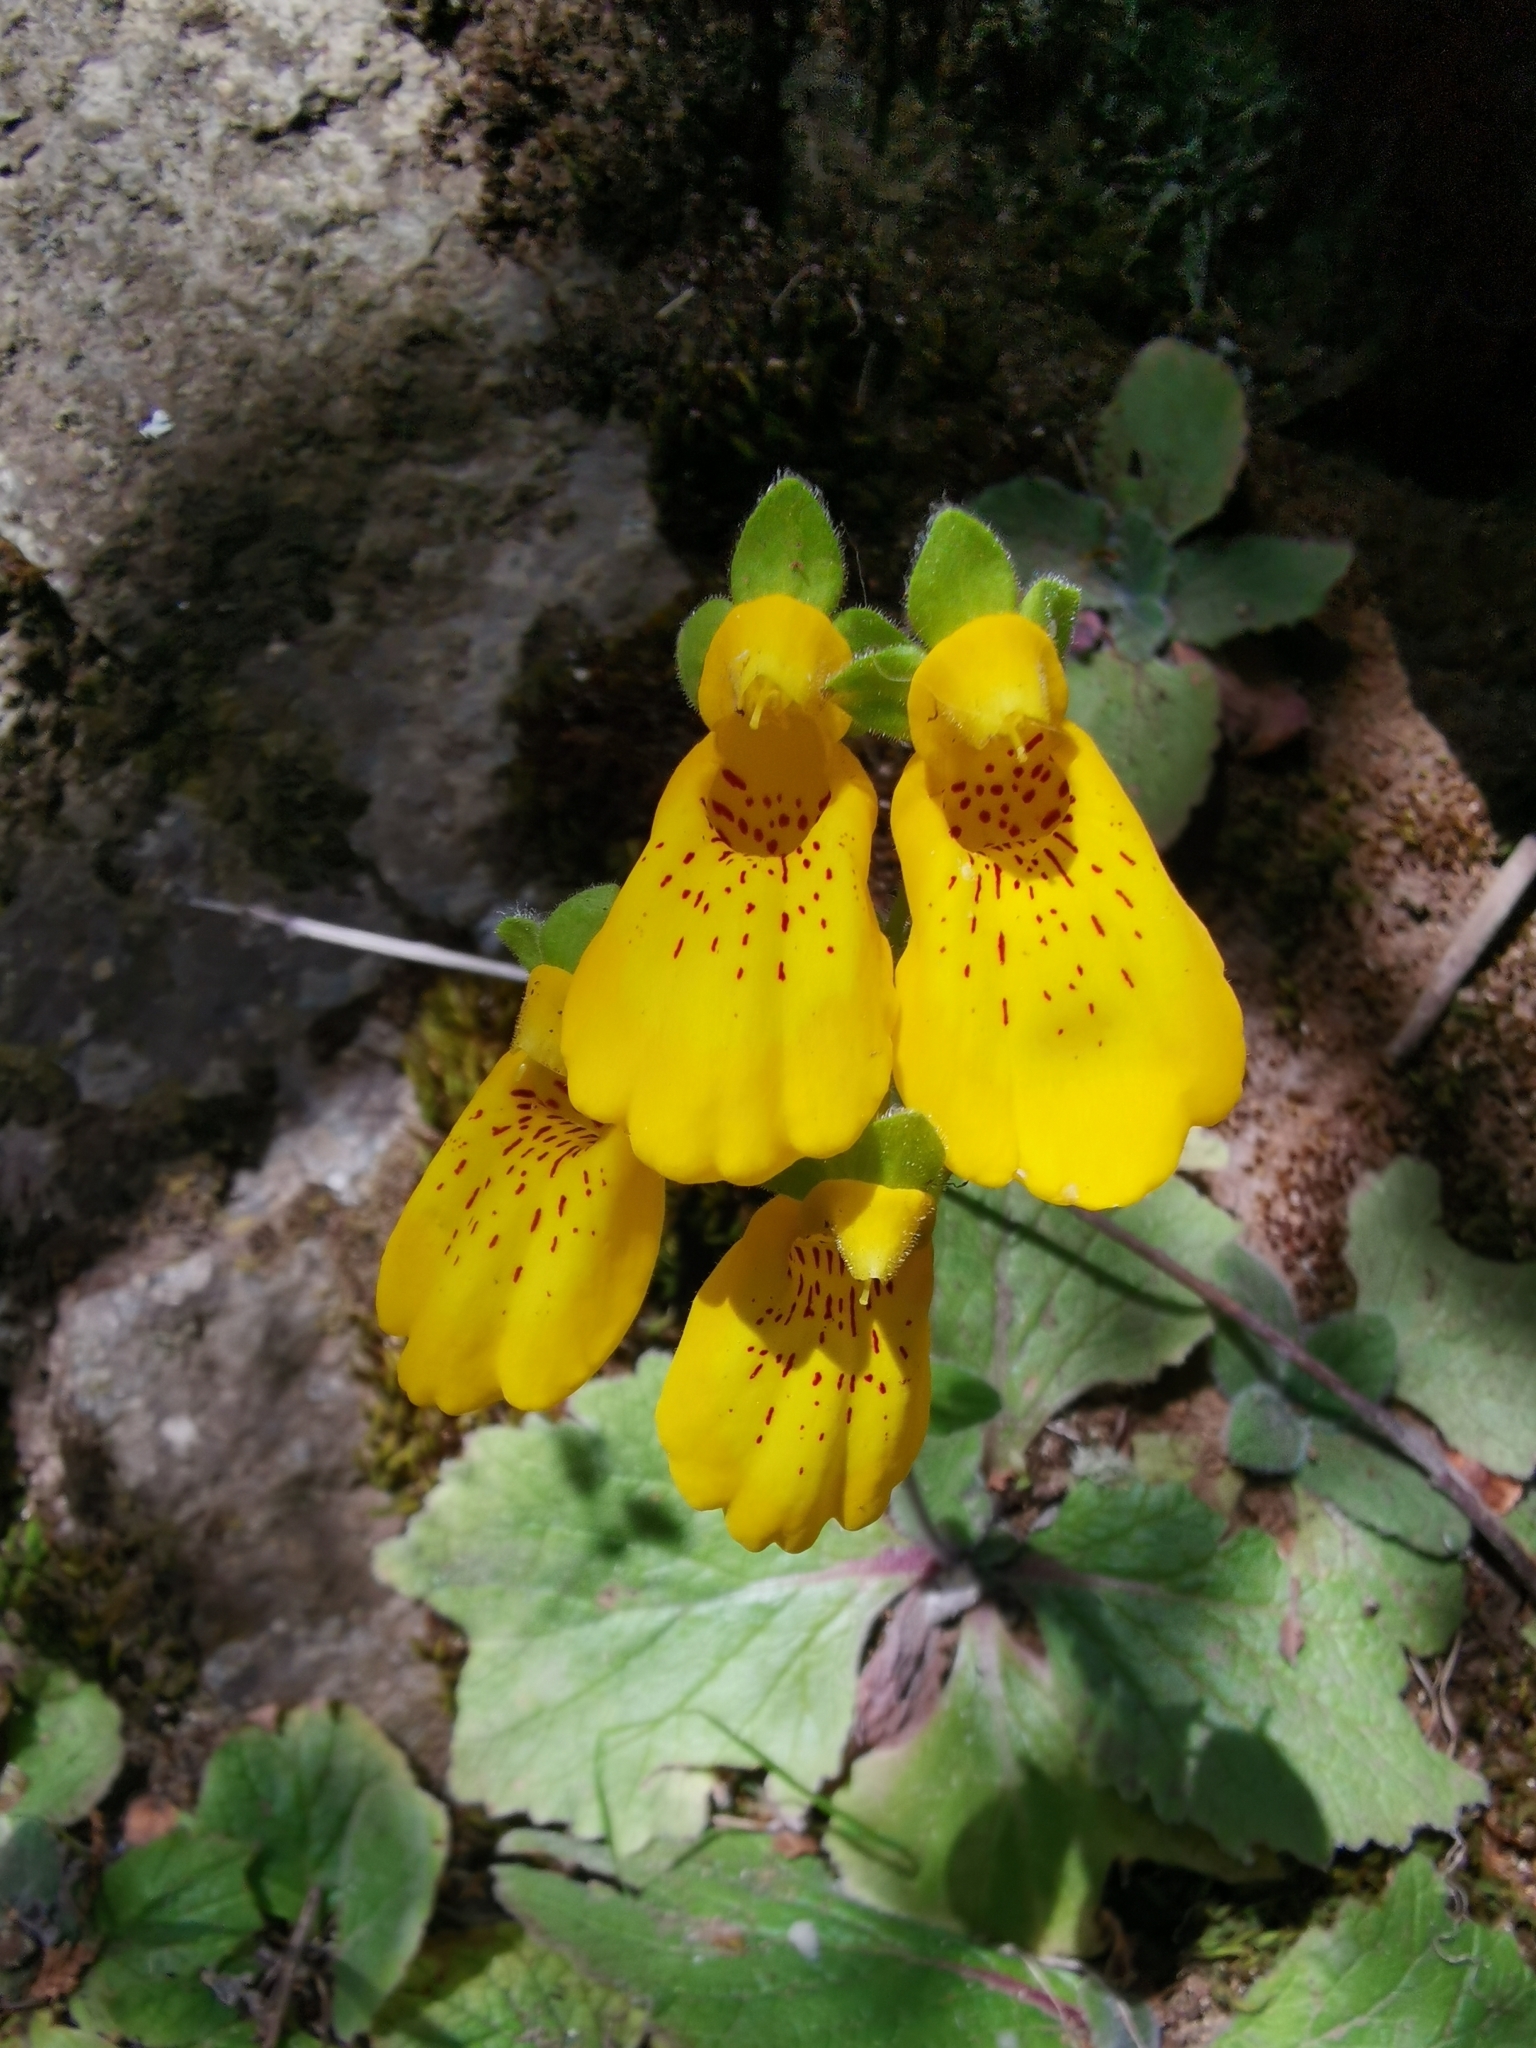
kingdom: Plantae
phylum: Tracheophyta
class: Magnoliopsida
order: Lamiales
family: Calceolariaceae
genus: Calceolaria
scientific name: Calceolaria crenatiflora
